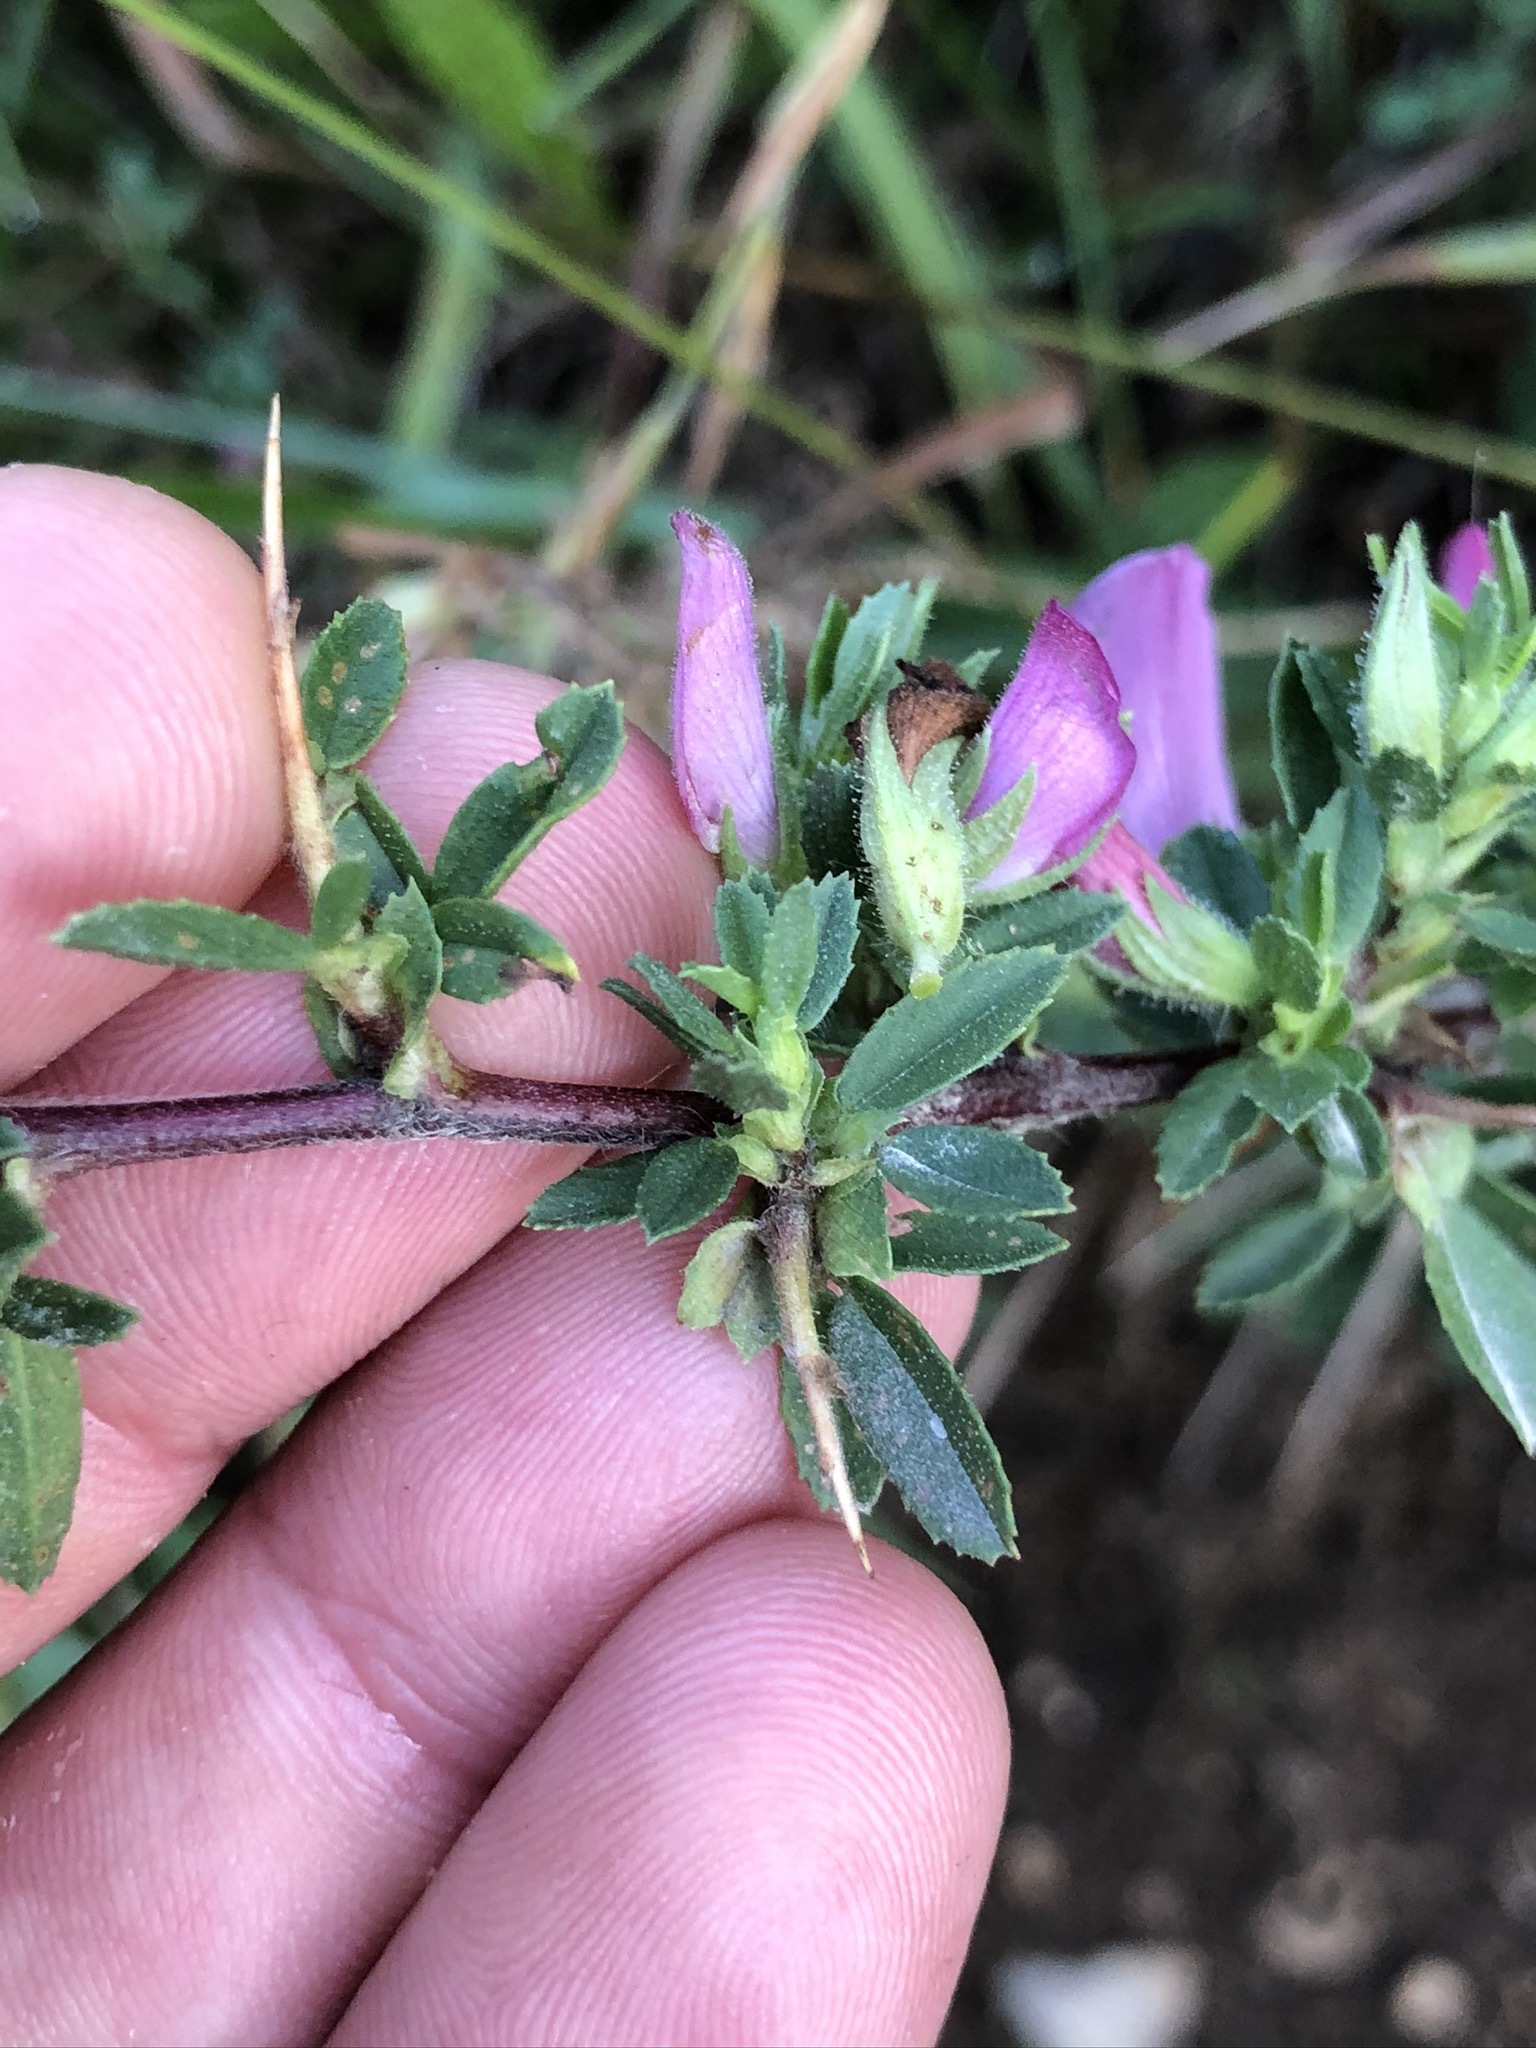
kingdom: Plantae
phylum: Tracheophyta
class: Magnoliopsida
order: Fabales
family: Fabaceae
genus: Ononis
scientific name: Ononis spinosa
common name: Spiny restharrow
